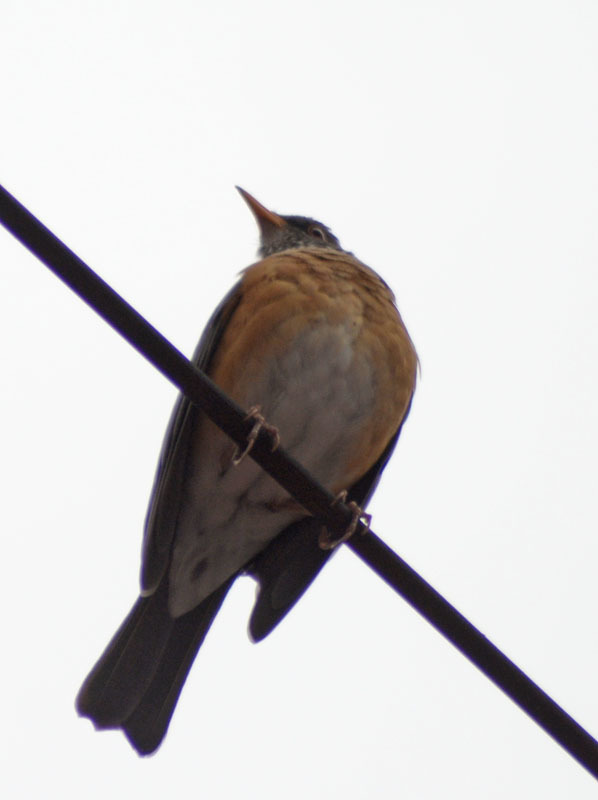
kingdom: Animalia
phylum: Chordata
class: Aves
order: Passeriformes
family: Turdidae
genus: Turdus
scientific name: Turdus rufopalliatus
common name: Rufous-backed robin
